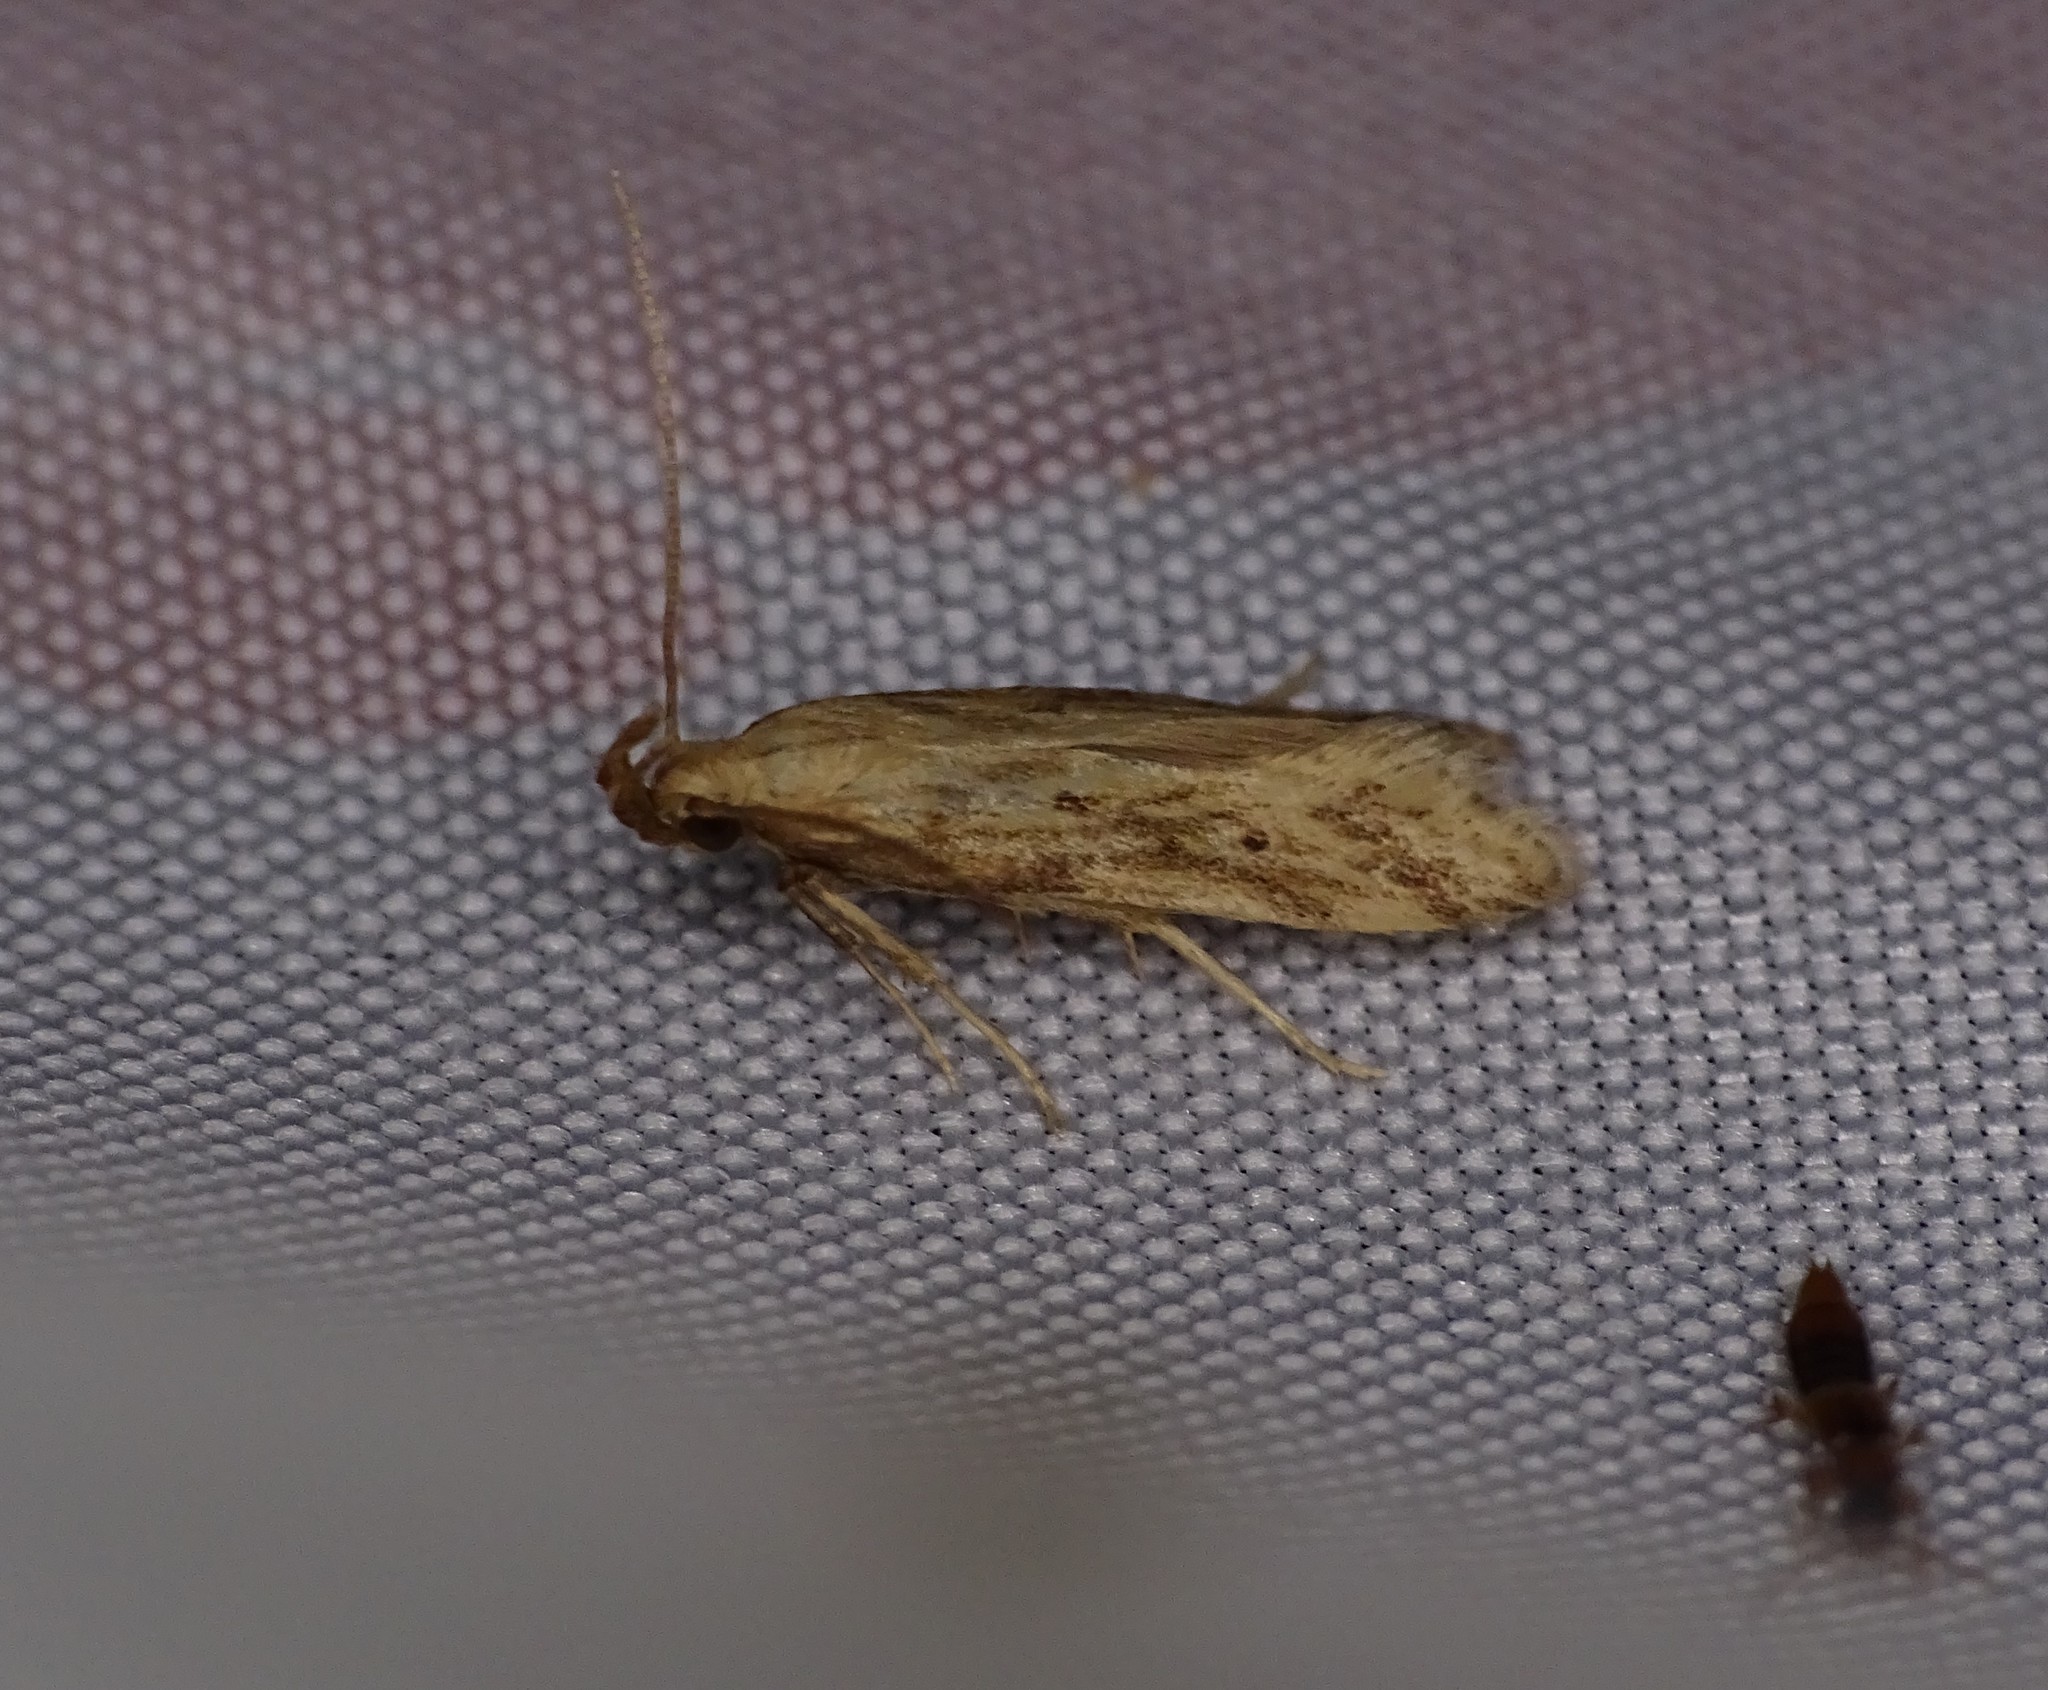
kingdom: Animalia
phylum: Arthropoda
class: Insecta
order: Lepidoptera
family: Gelechiidae
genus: Metzneria
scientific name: Metzneria lappella
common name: Burdock neb
